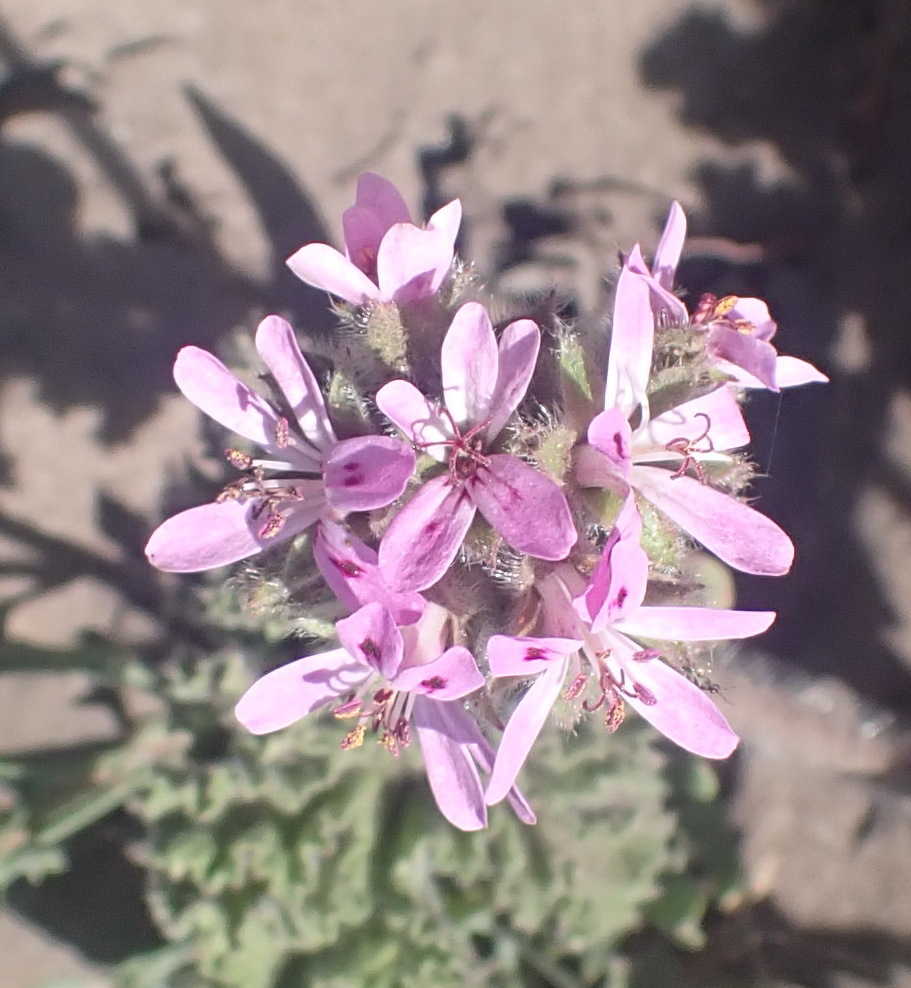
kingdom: Plantae
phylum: Tracheophyta
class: Magnoliopsida
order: Geraniales
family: Geraniaceae
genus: Pelargonium
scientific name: Pelargonium capitatum
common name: Rose scented geranium
